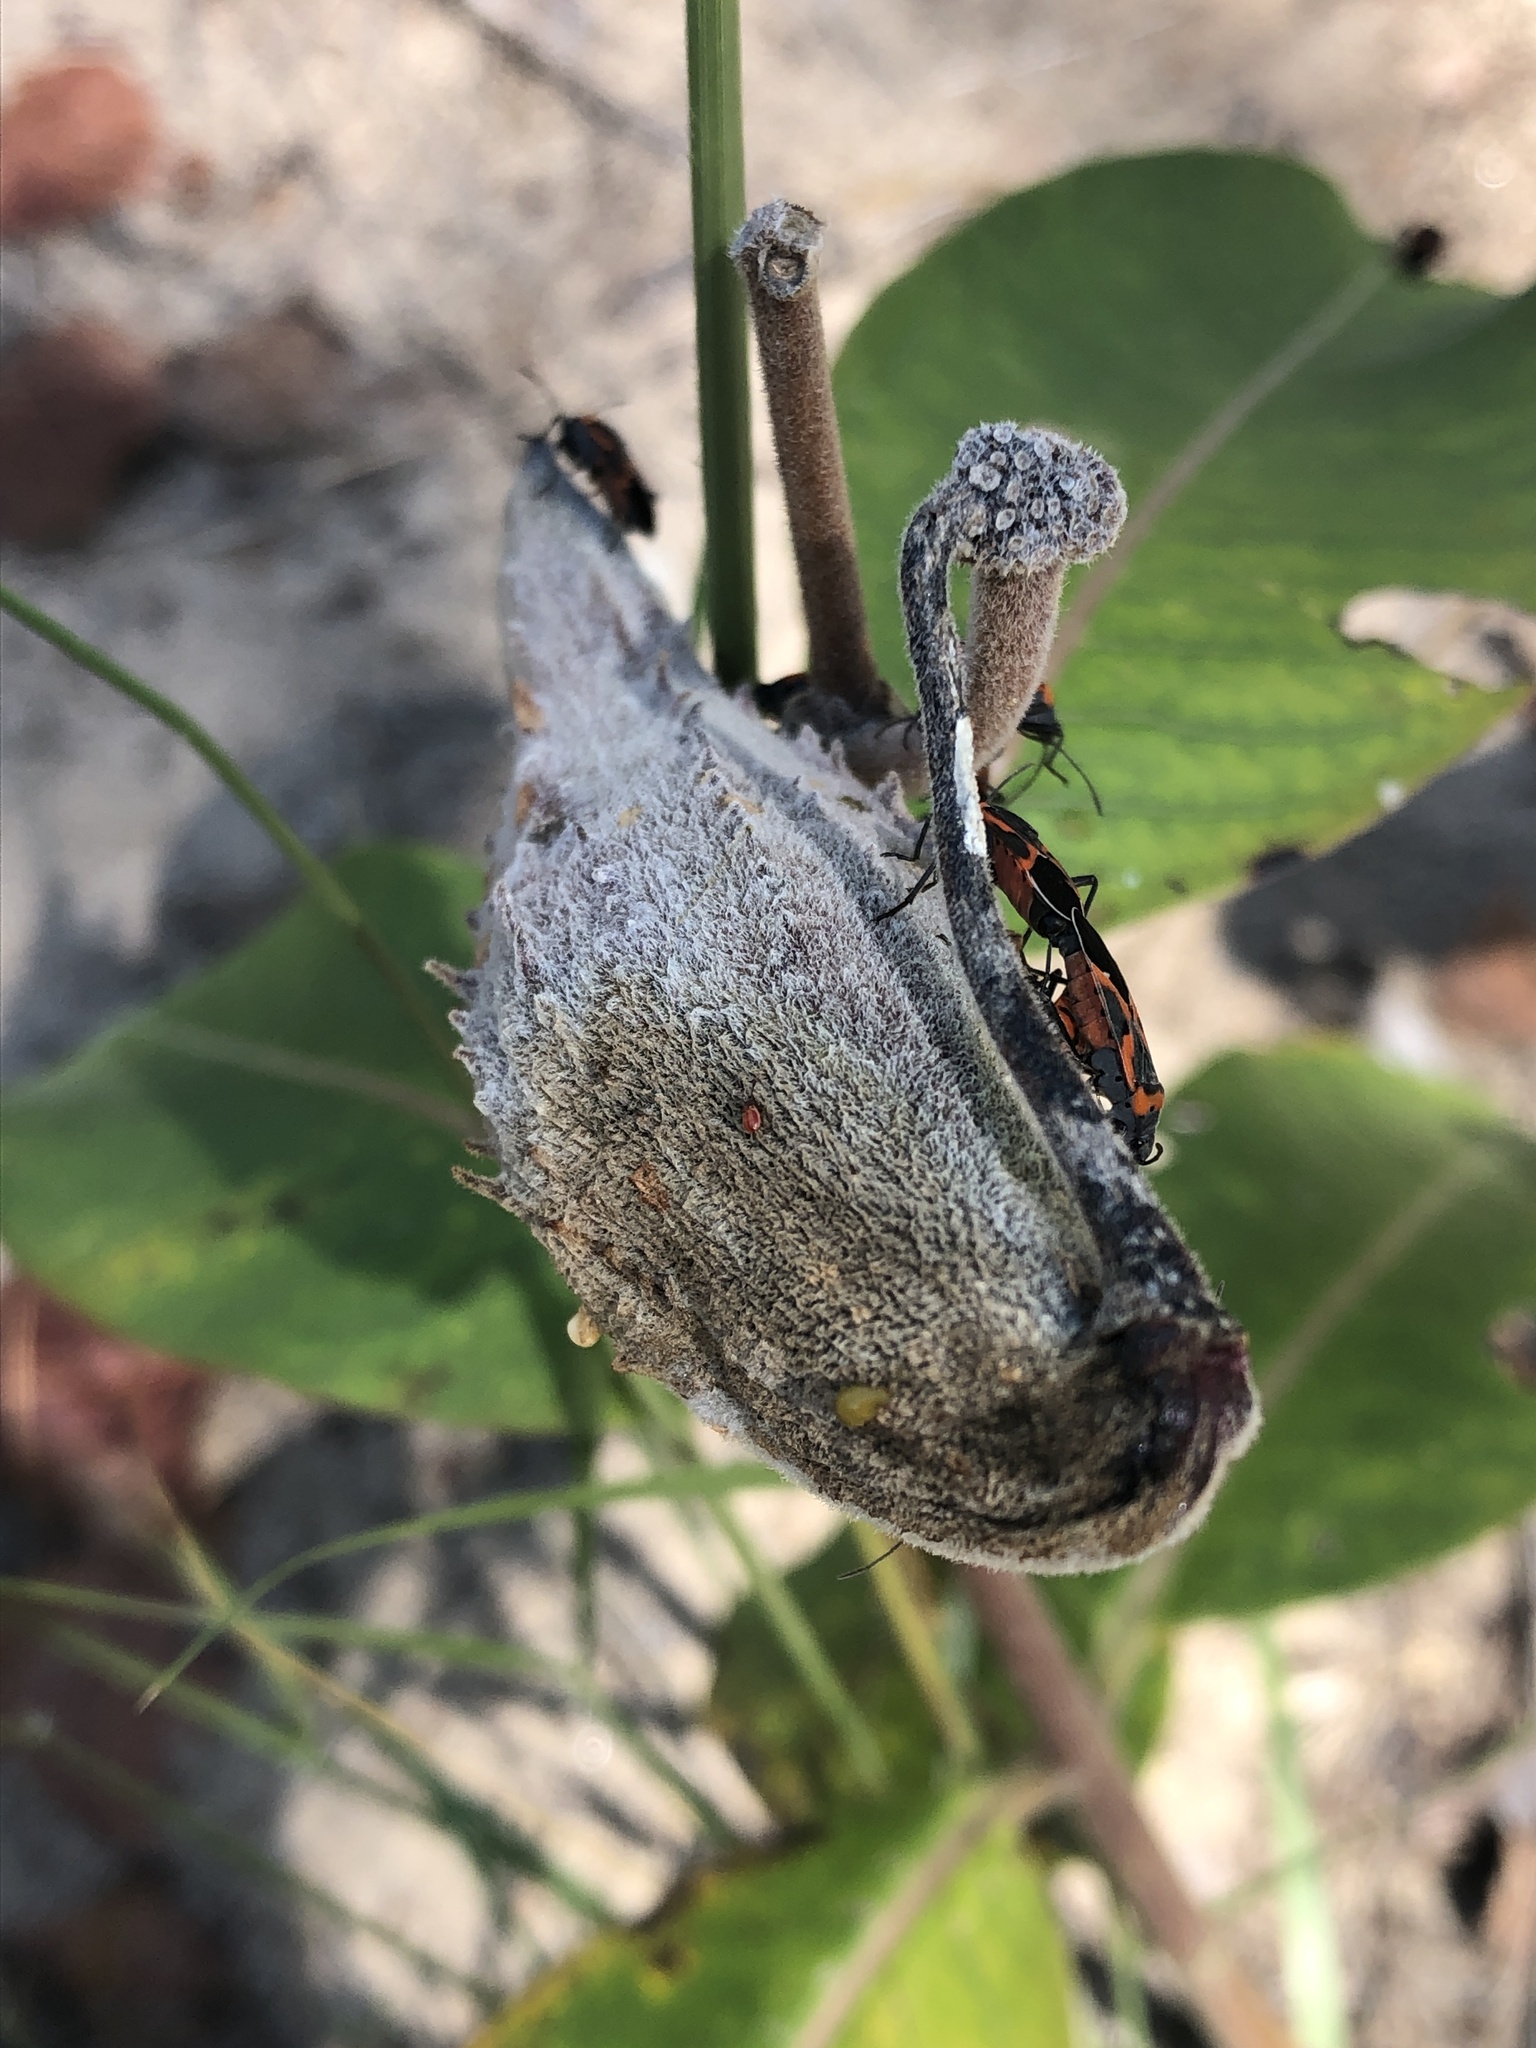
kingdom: Animalia
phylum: Arthropoda
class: Insecta
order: Hemiptera
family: Lygaeidae
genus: Lygaeus
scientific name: Lygaeus kalmii
